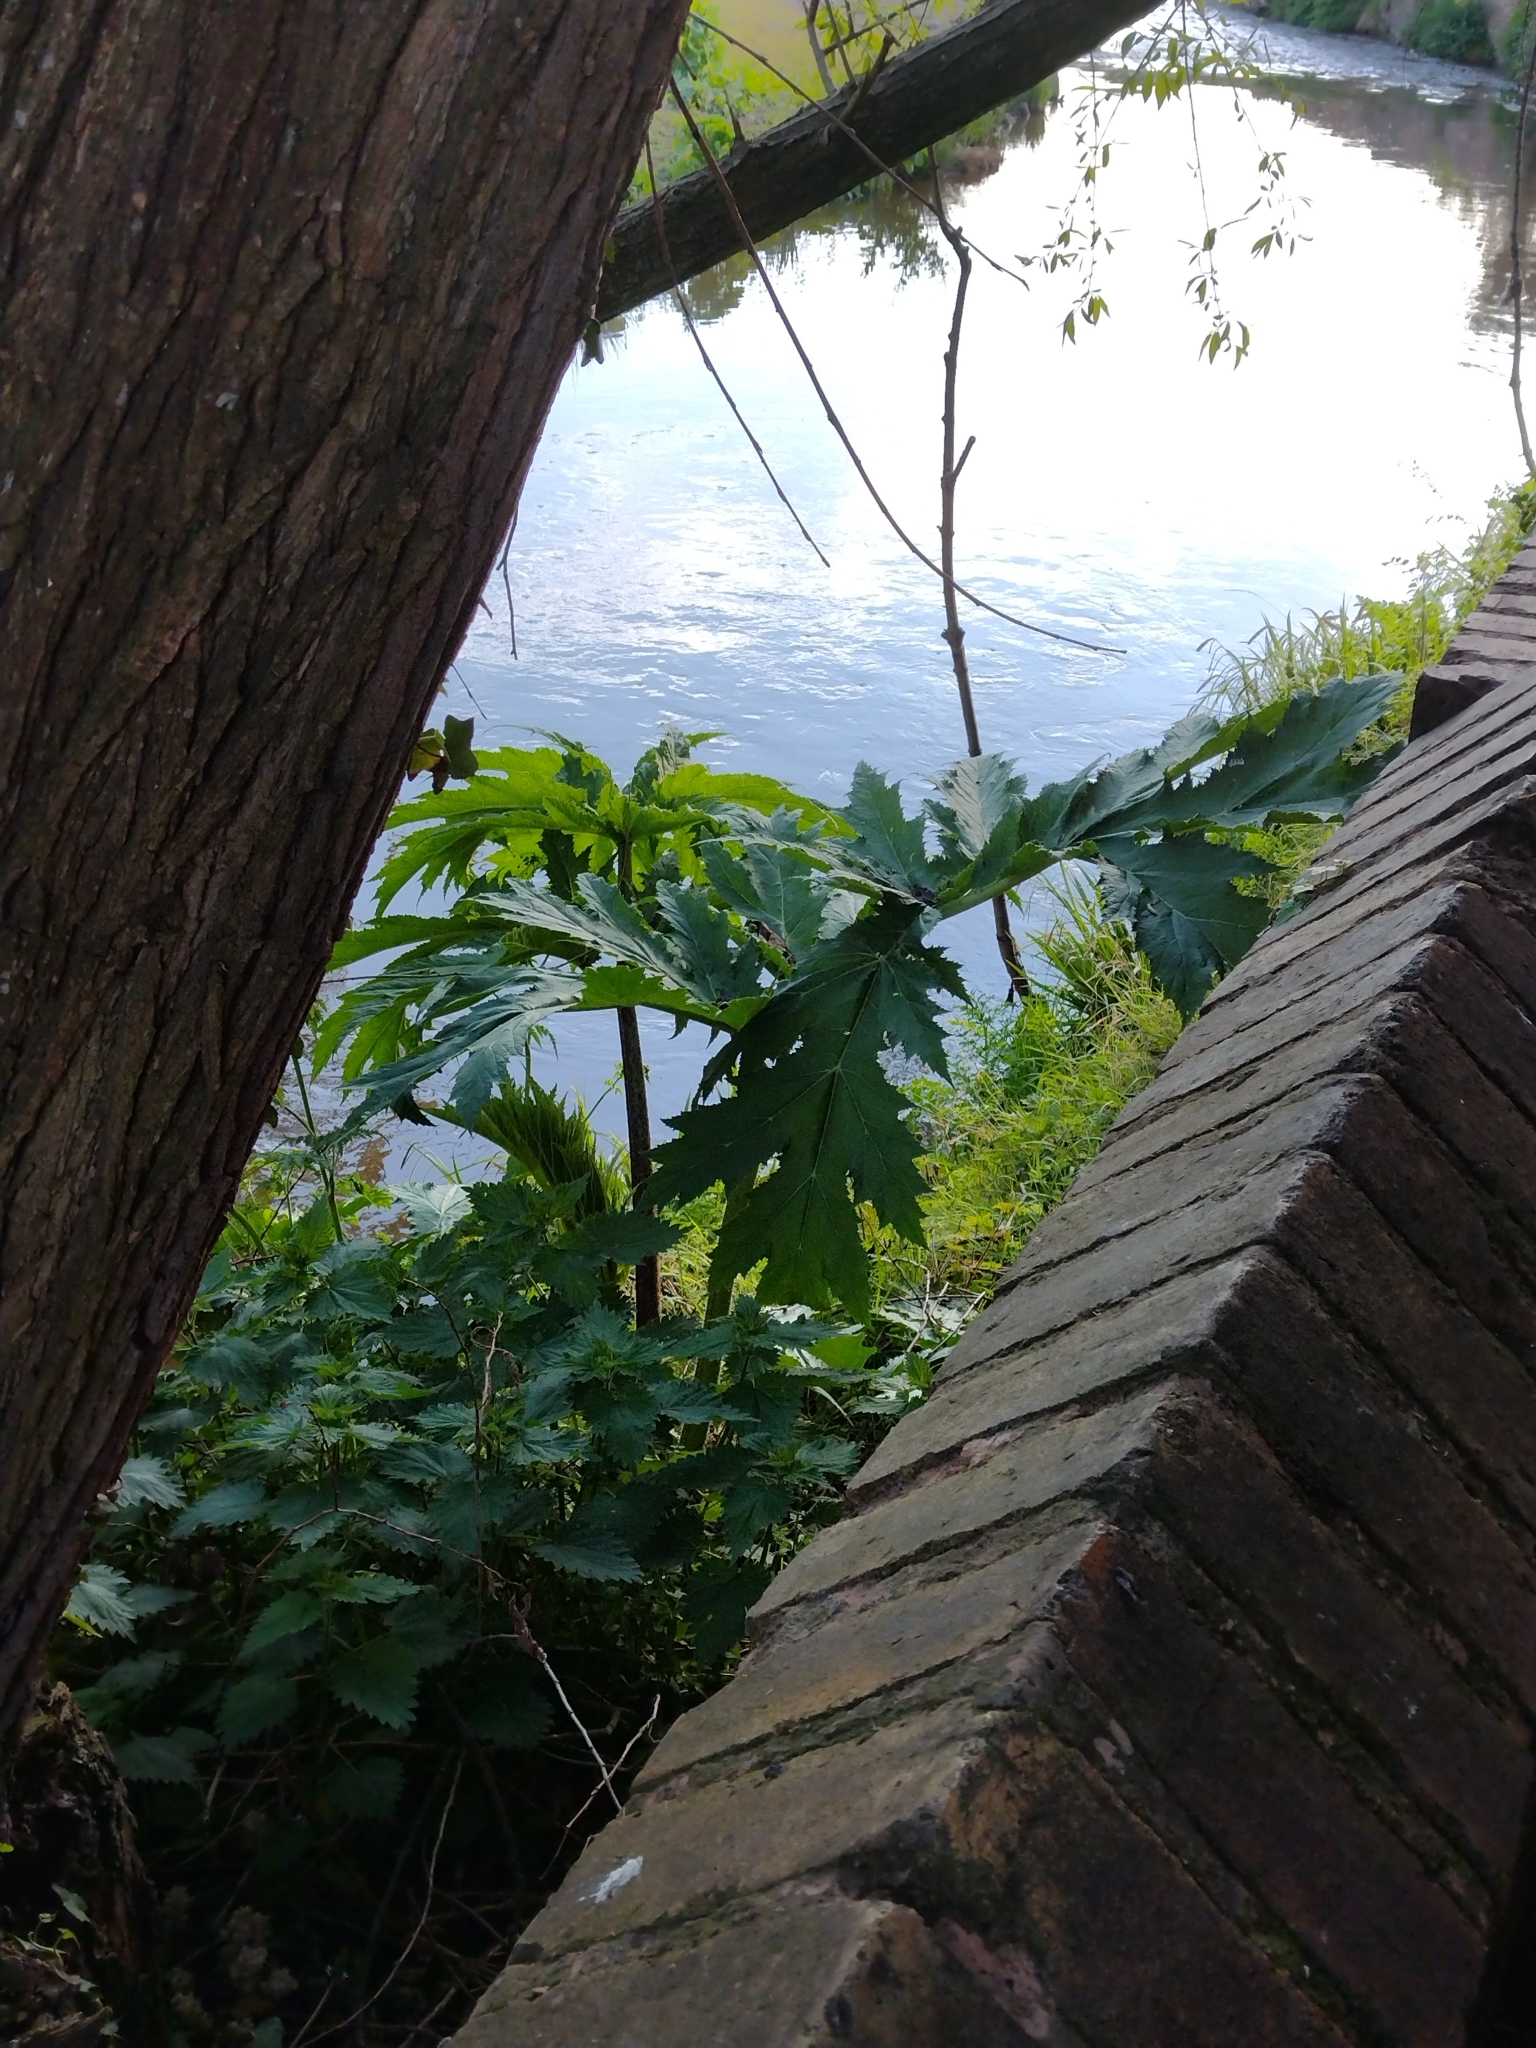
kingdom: Plantae
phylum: Tracheophyta
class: Magnoliopsida
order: Apiales
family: Apiaceae
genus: Heracleum
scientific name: Heracleum mantegazzianum
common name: Giant hogweed
